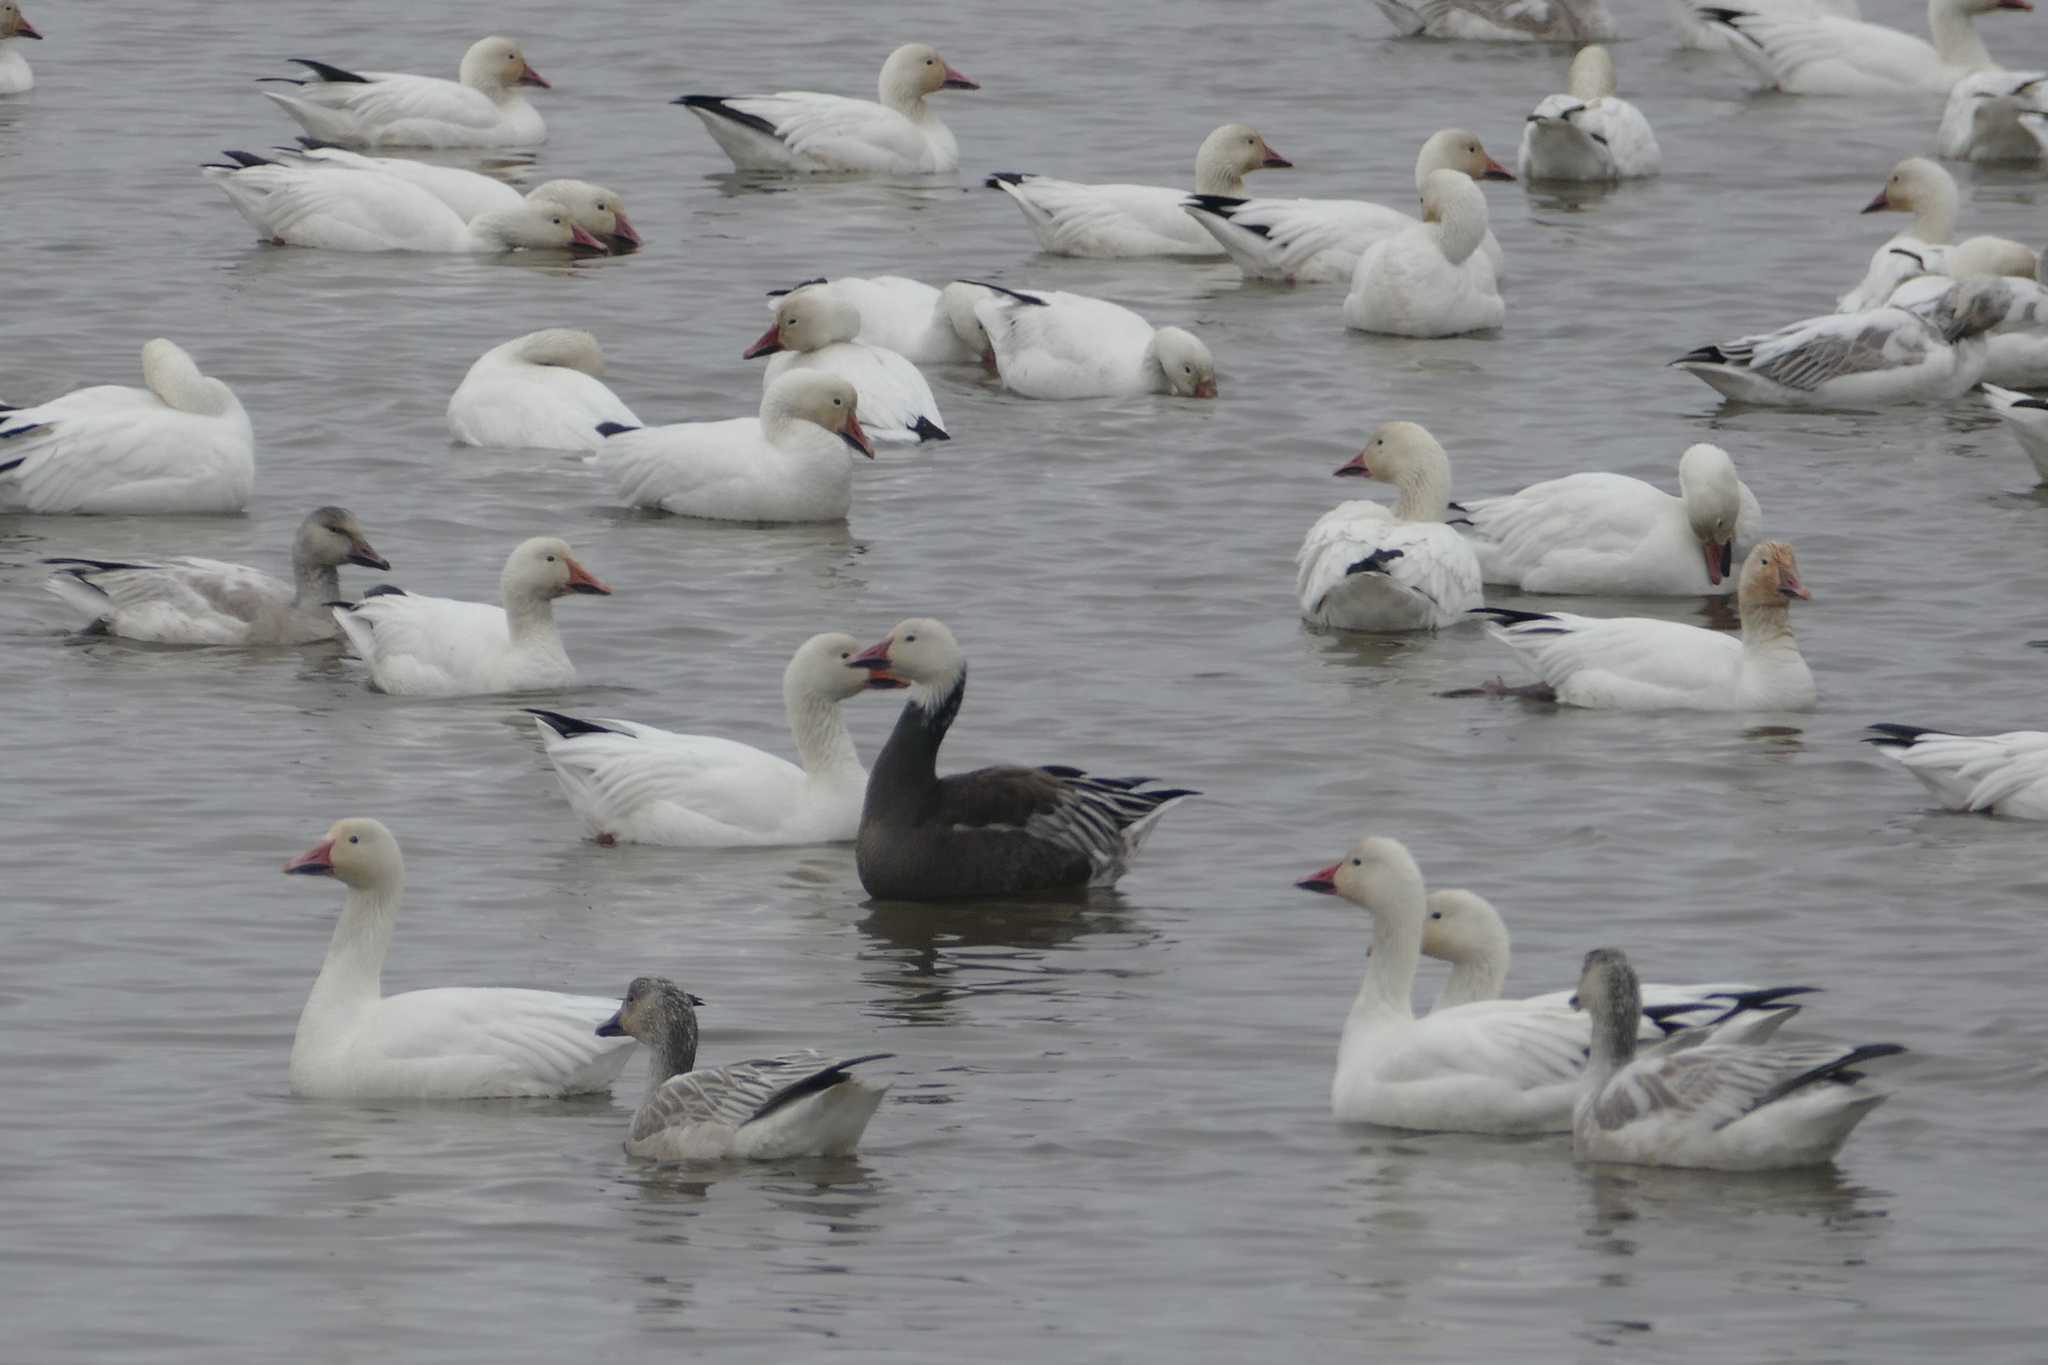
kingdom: Animalia
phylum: Chordata
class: Aves
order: Anseriformes
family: Anatidae
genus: Anser
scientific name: Anser caerulescens
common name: Snow goose
